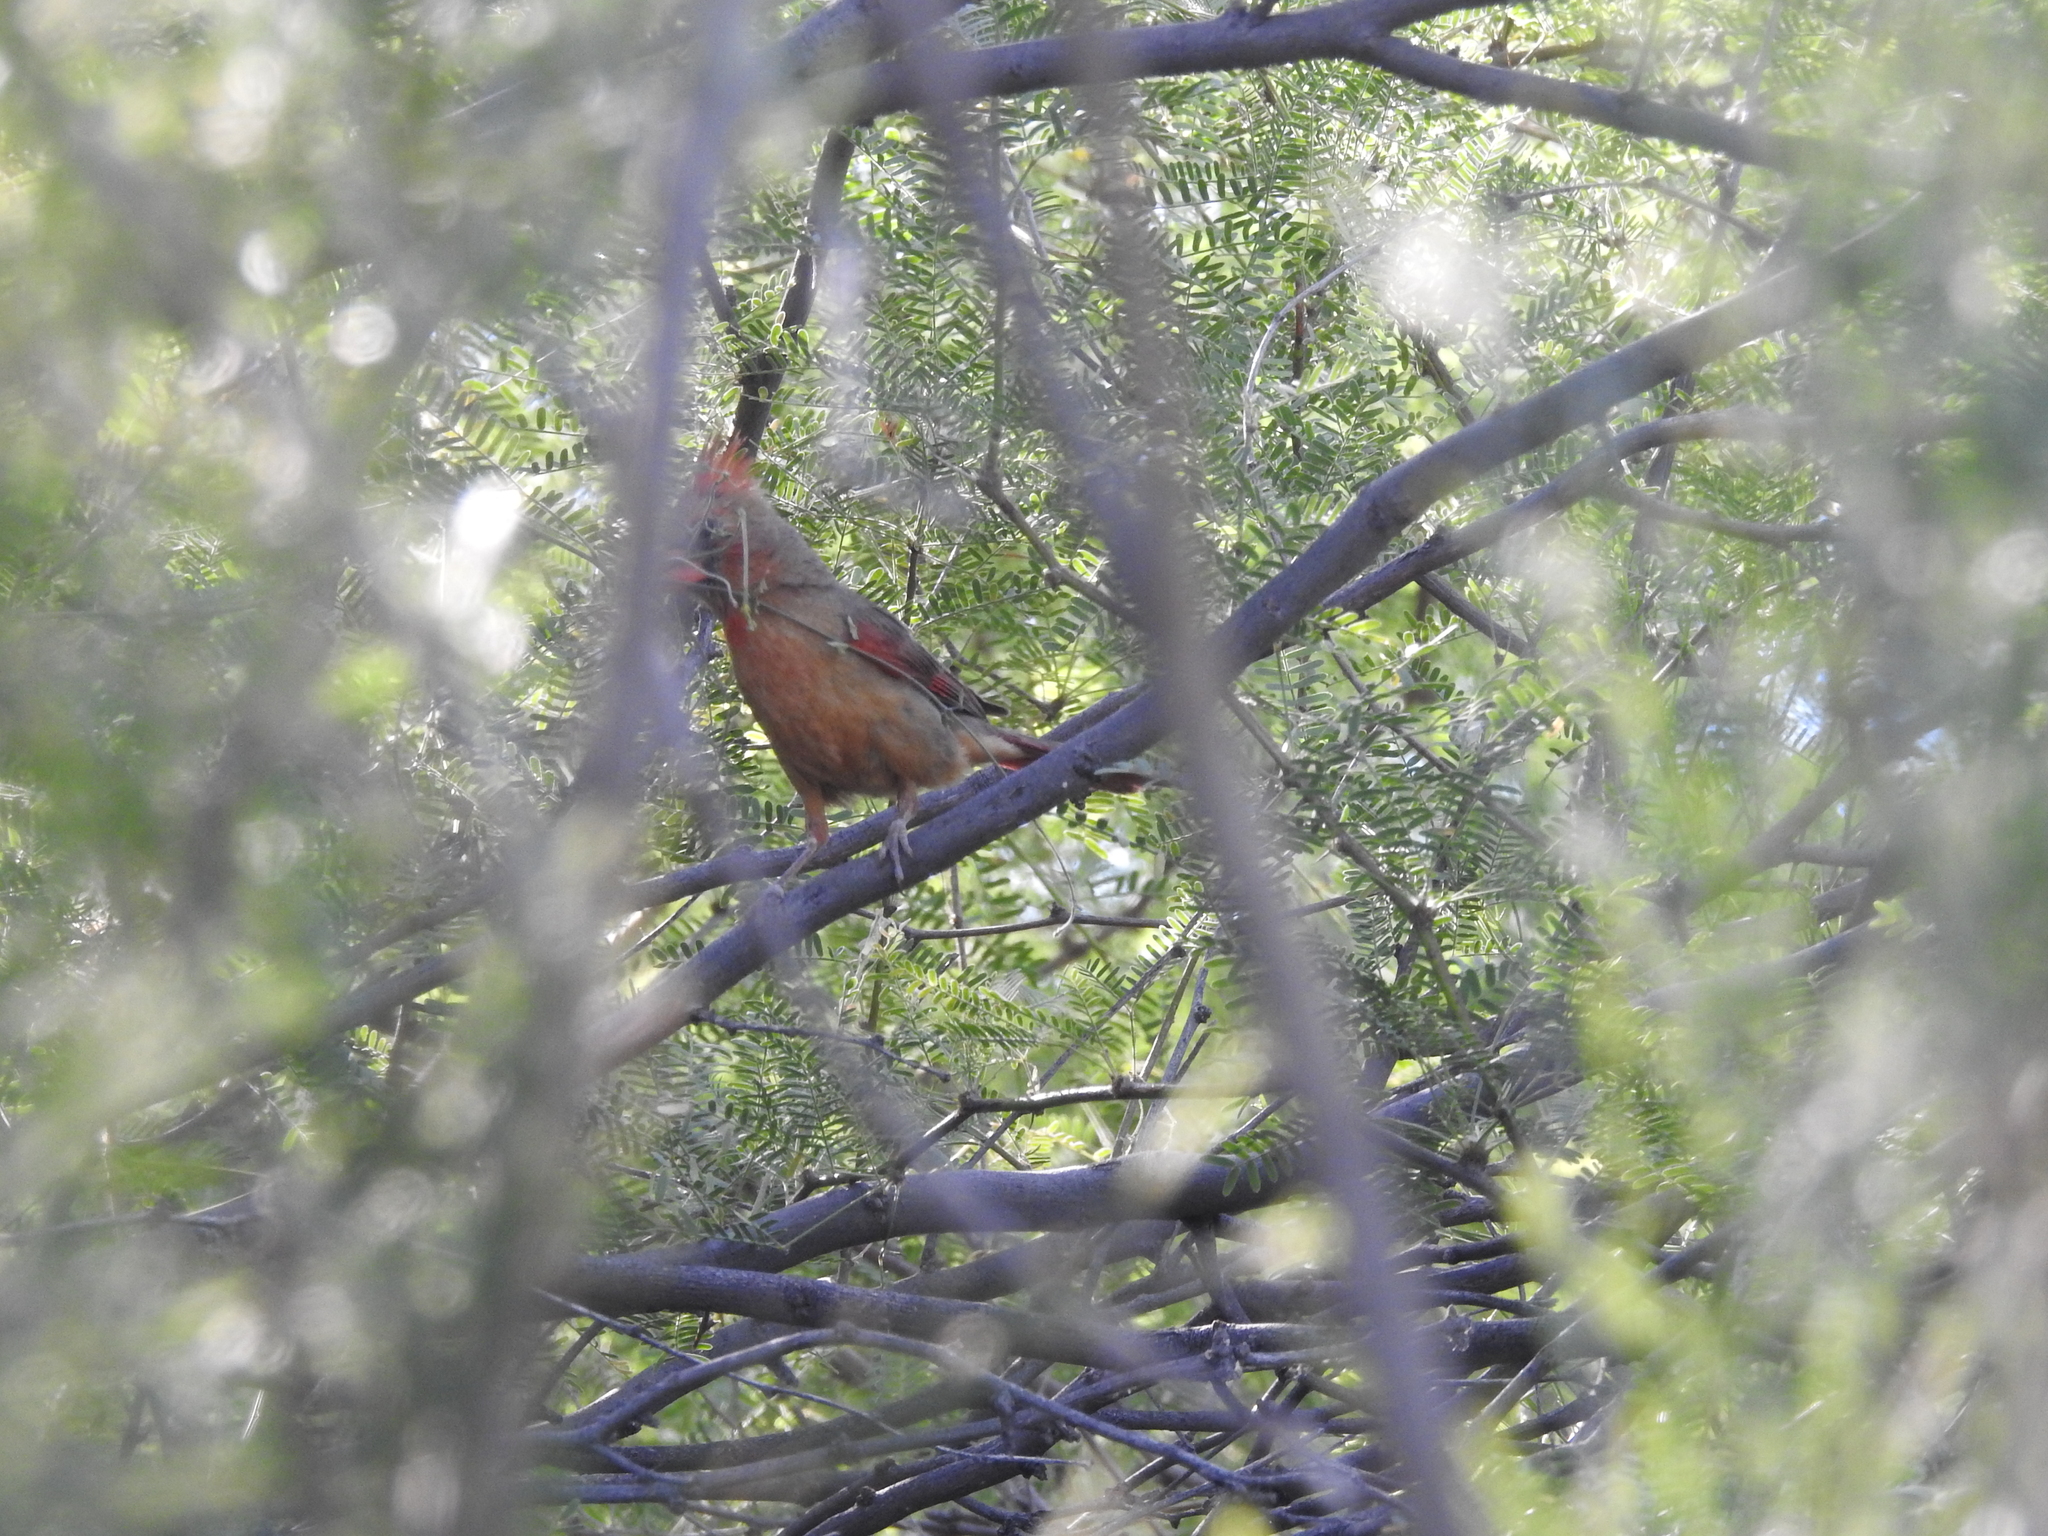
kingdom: Animalia
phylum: Chordata
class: Aves
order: Passeriformes
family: Cardinalidae
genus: Cardinalis
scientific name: Cardinalis cardinalis
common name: Northern cardinal
